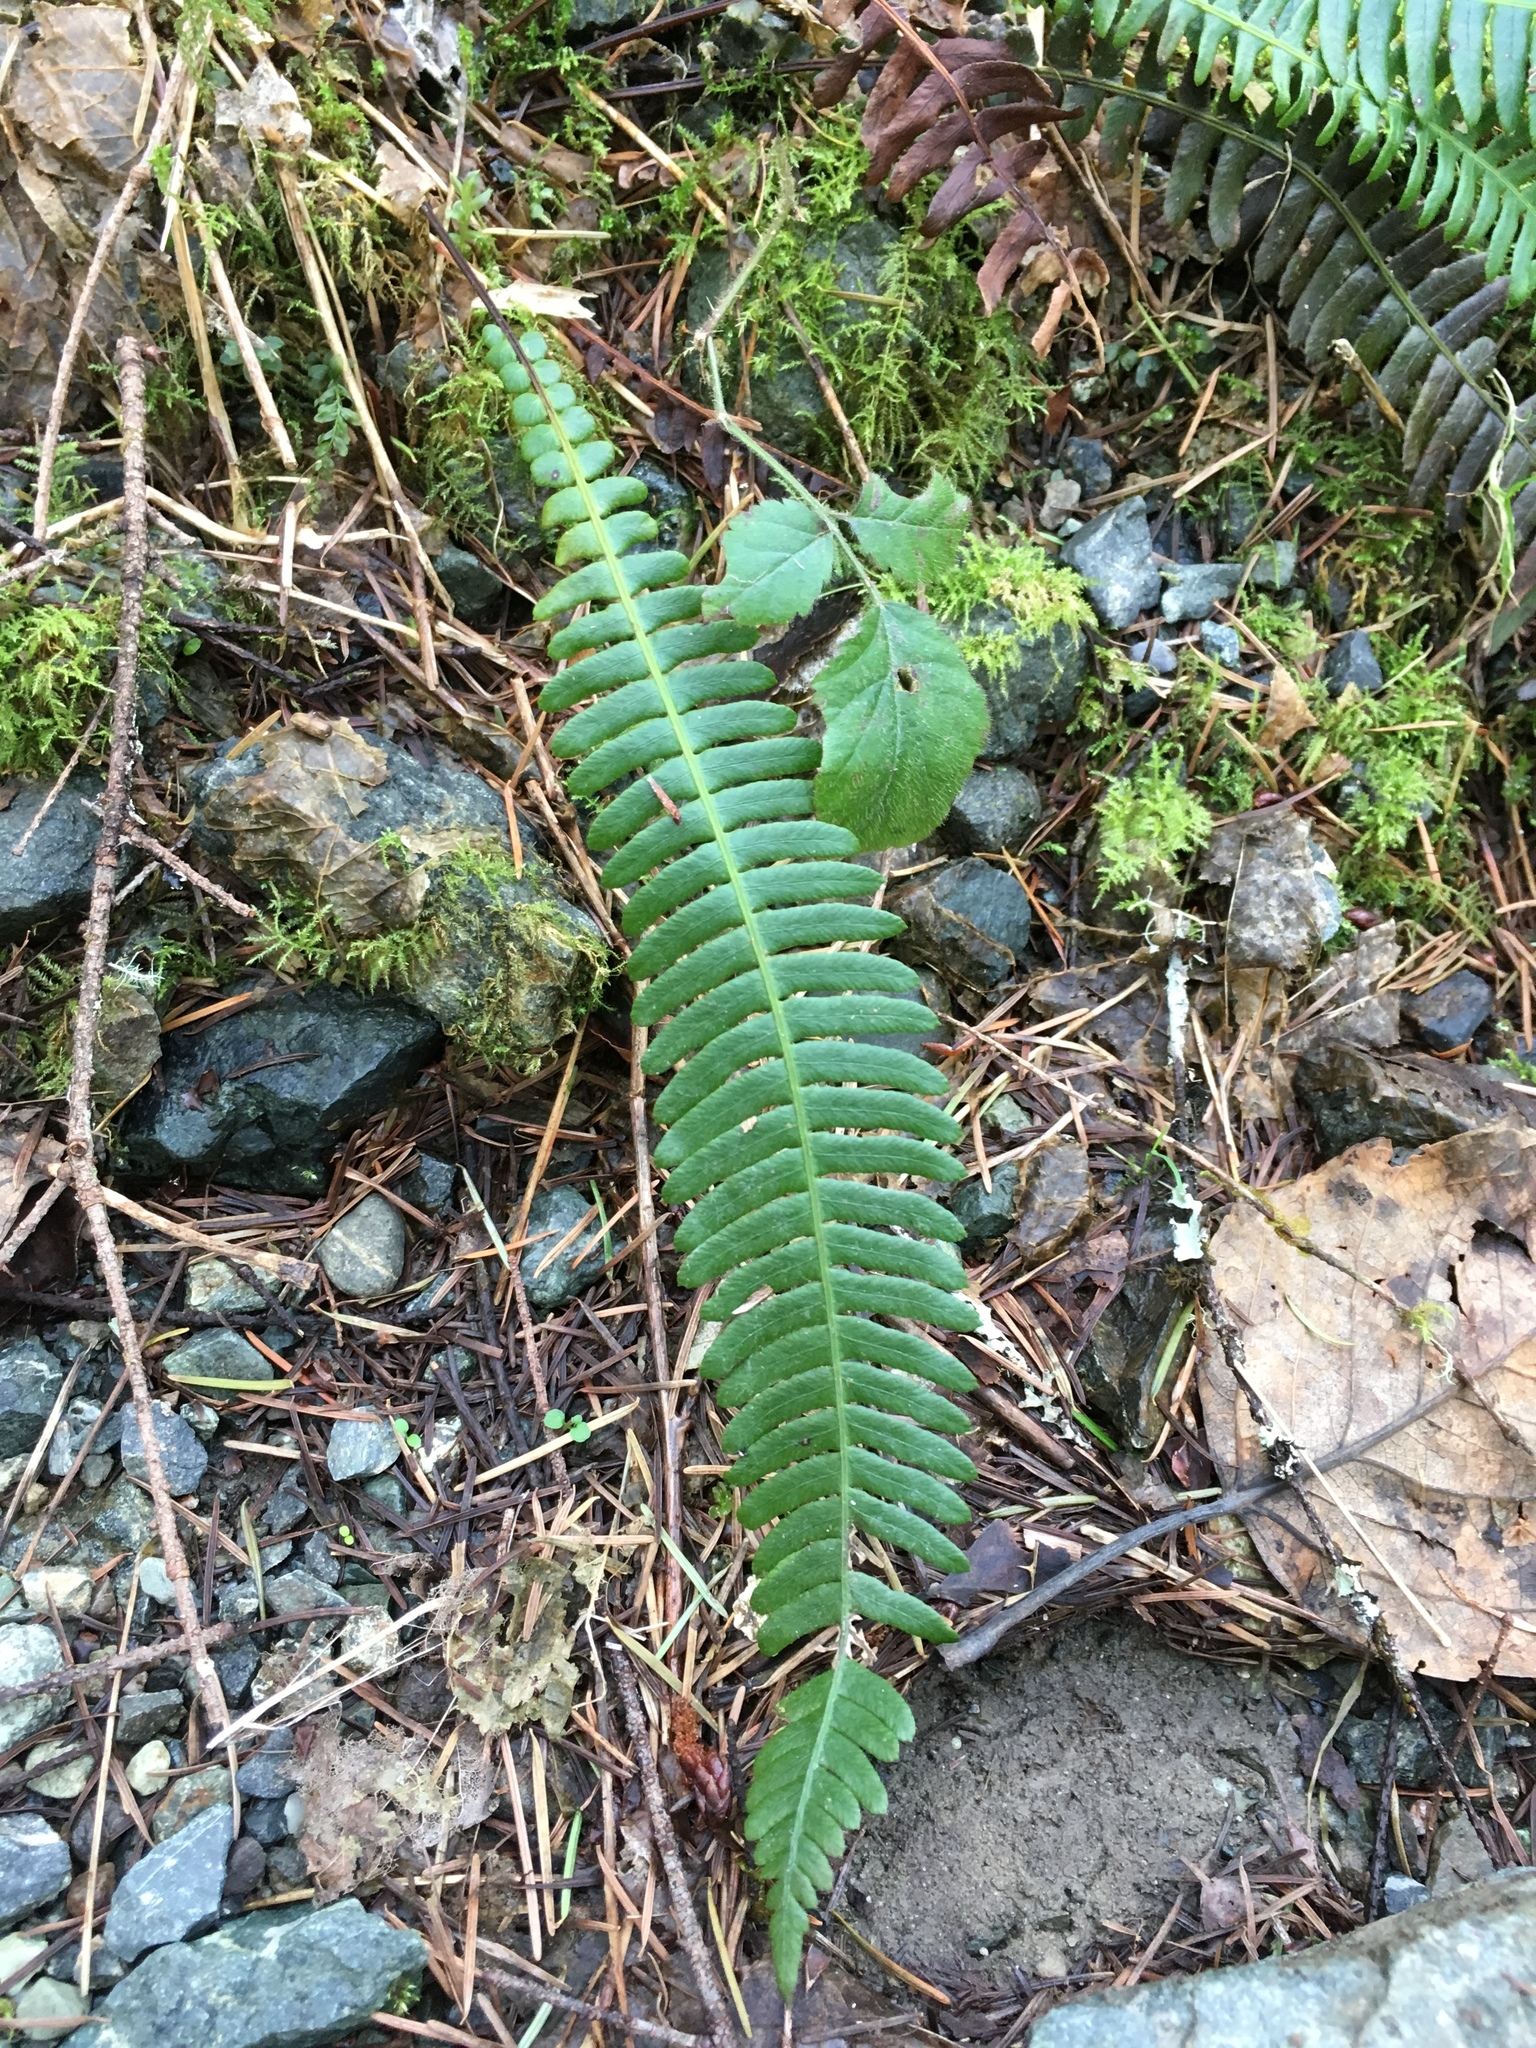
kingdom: Plantae
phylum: Tracheophyta
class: Polypodiopsida
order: Polypodiales
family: Blechnaceae
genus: Struthiopteris
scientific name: Struthiopteris spicant
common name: Deer fern
